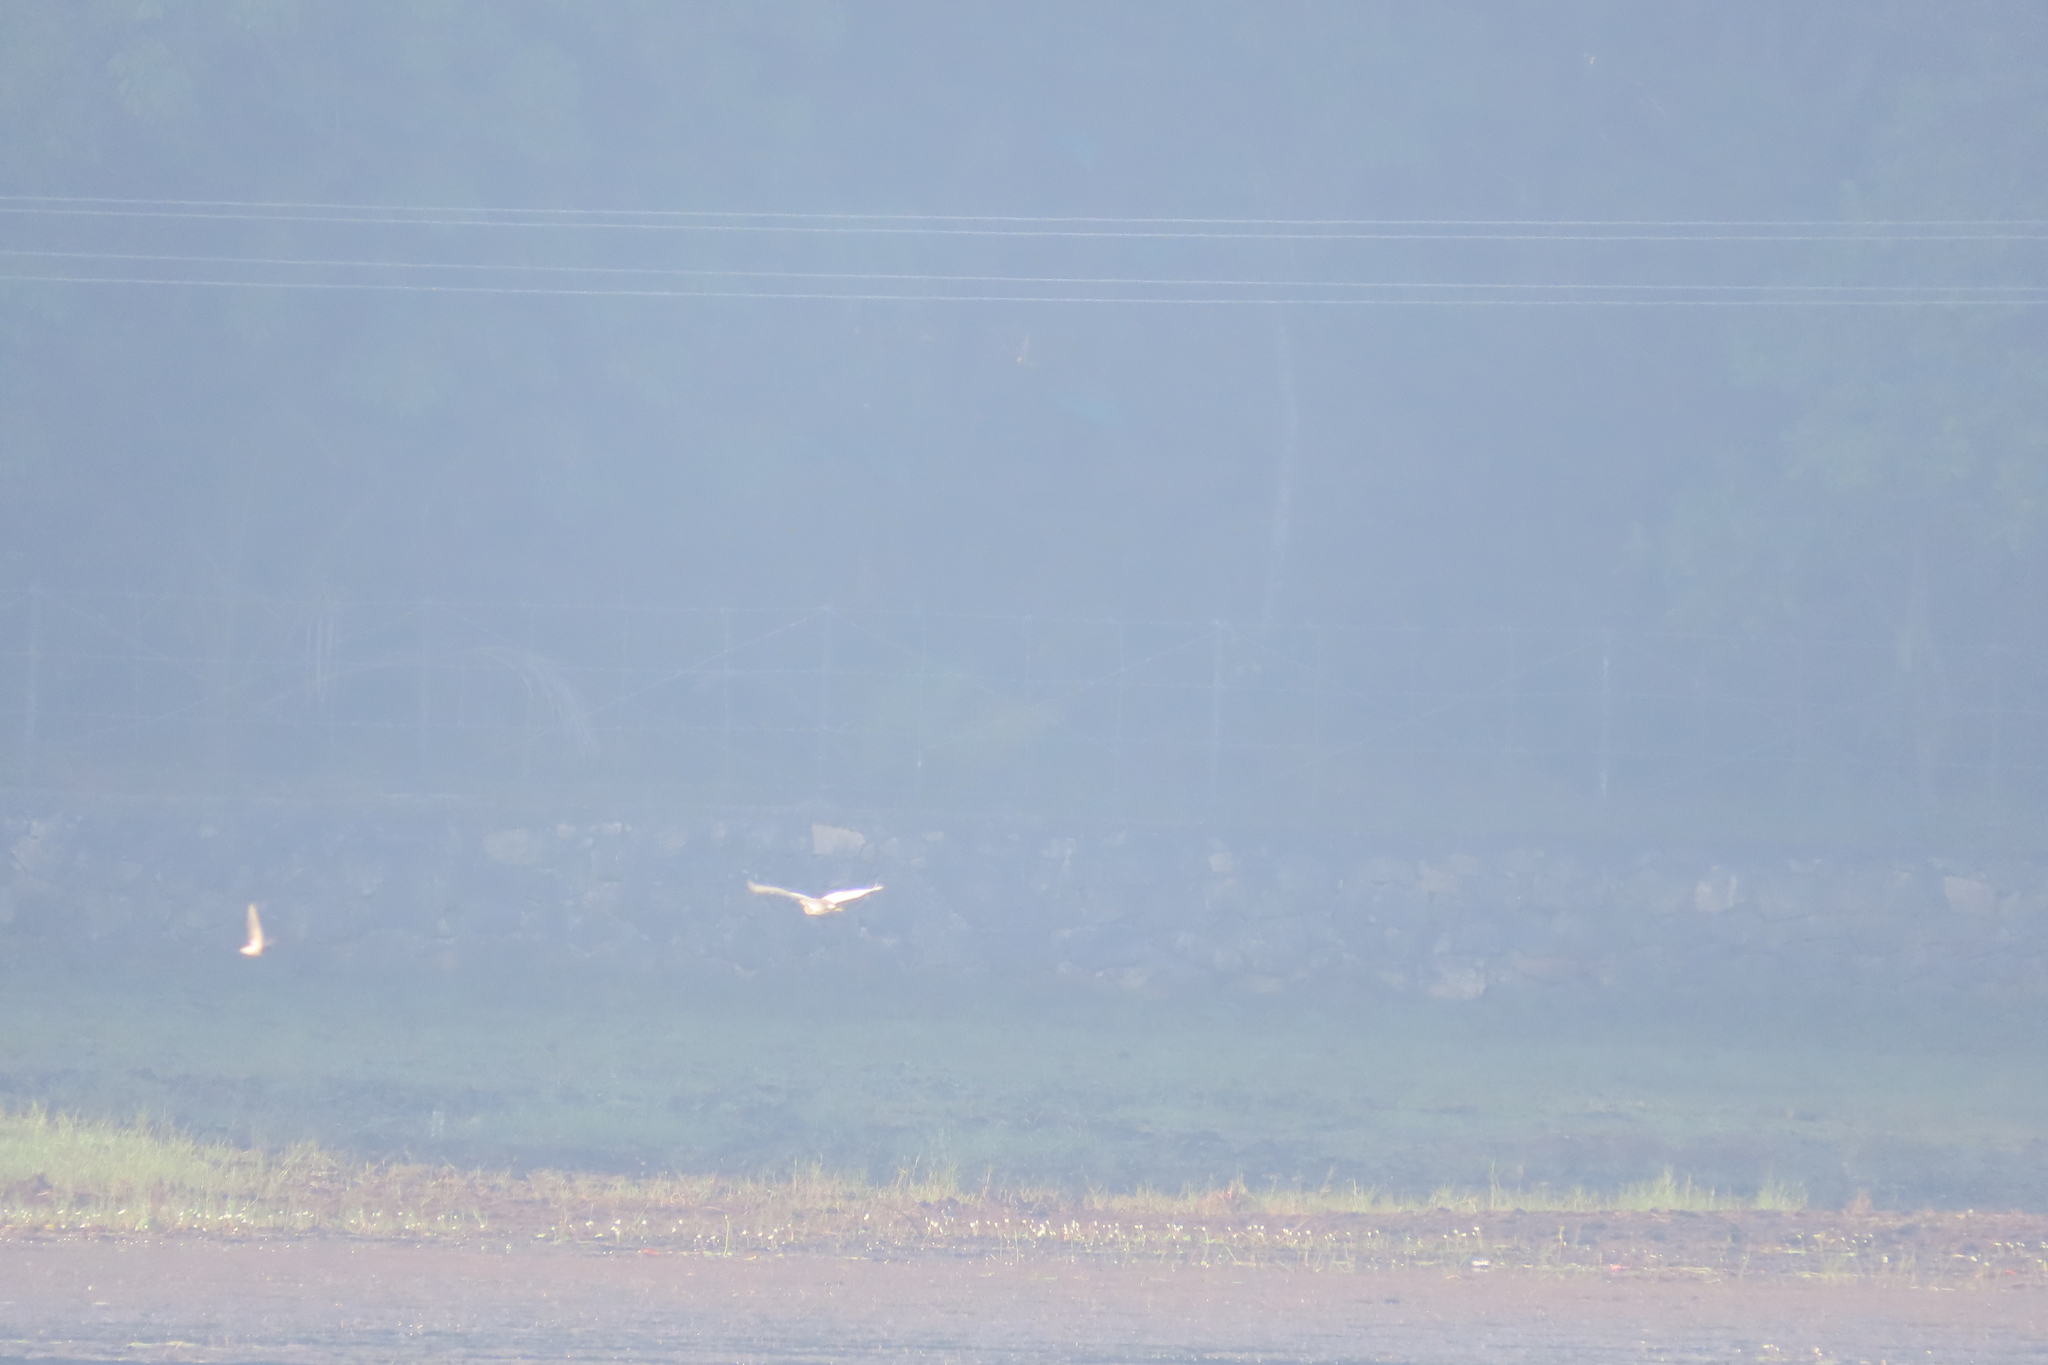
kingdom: Animalia
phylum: Chordata
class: Aves
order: Pelecaniformes
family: Ardeidae
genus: Ardeola
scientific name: Ardeola grayii
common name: Indian pond heron
